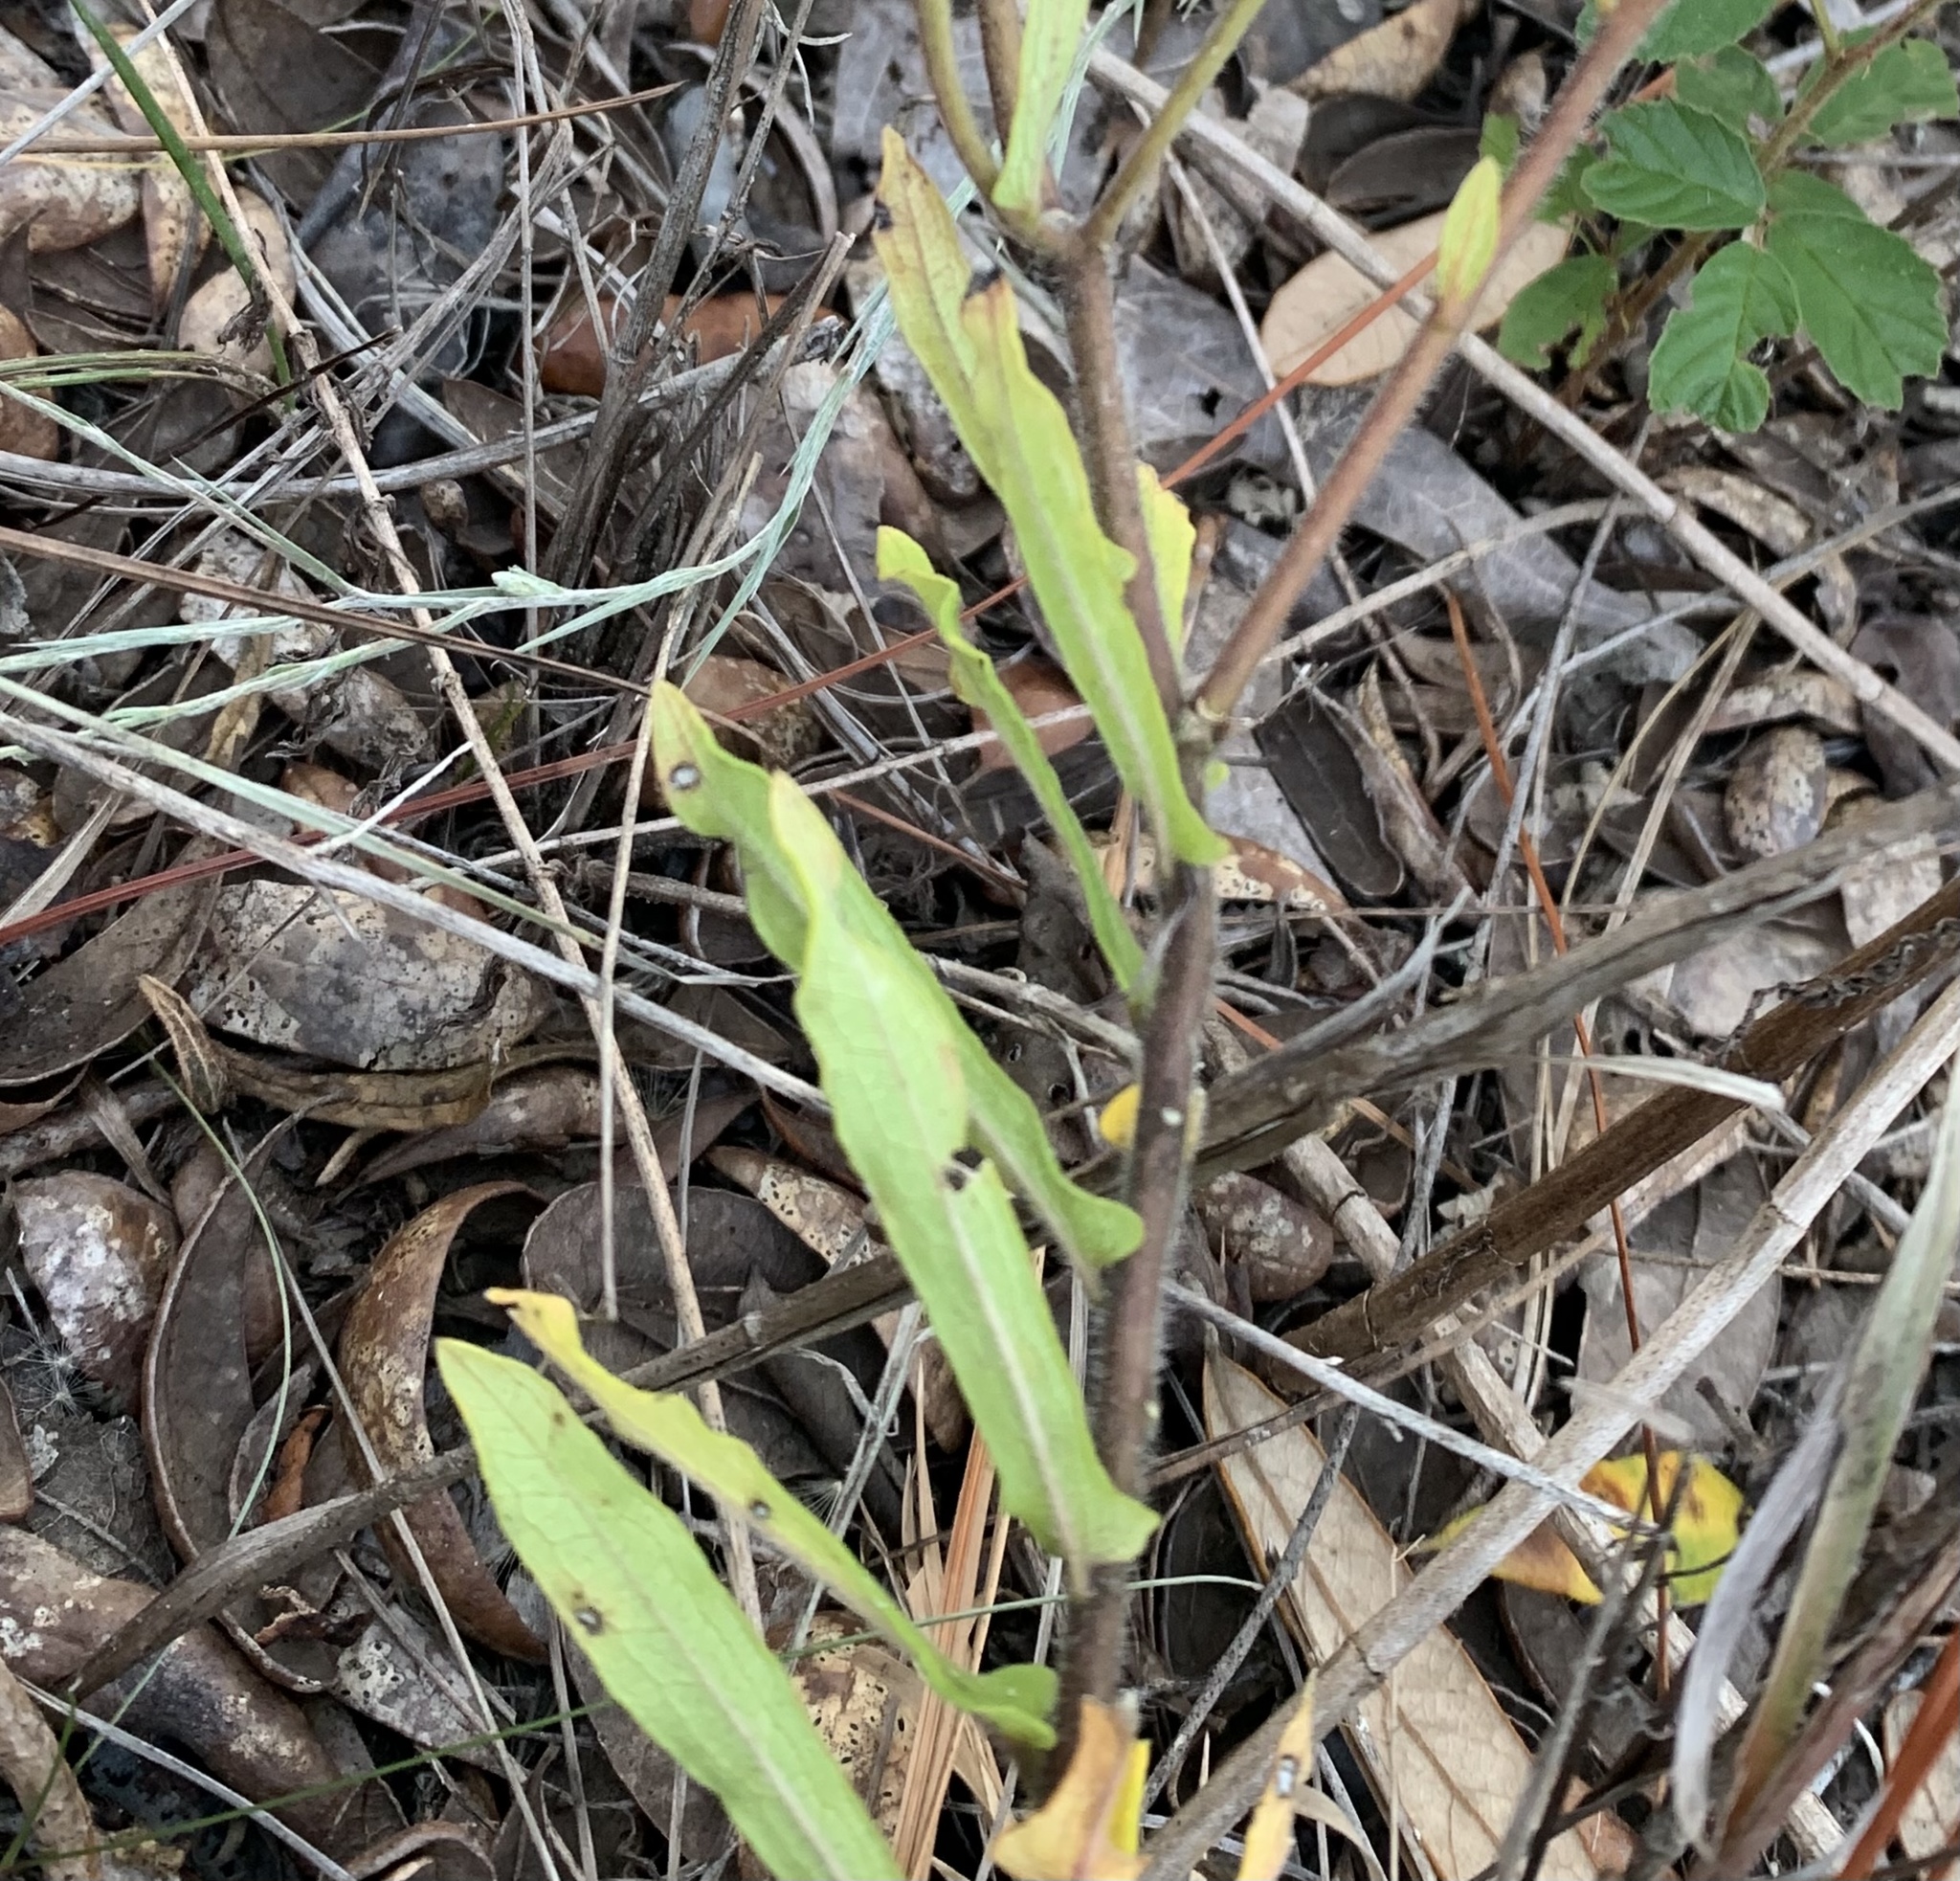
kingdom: Plantae
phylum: Tracheophyta
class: Magnoliopsida
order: Gentianales
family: Apocynaceae
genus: Asclepias
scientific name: Asclepias tuberosa
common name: Butterfly milkweed
